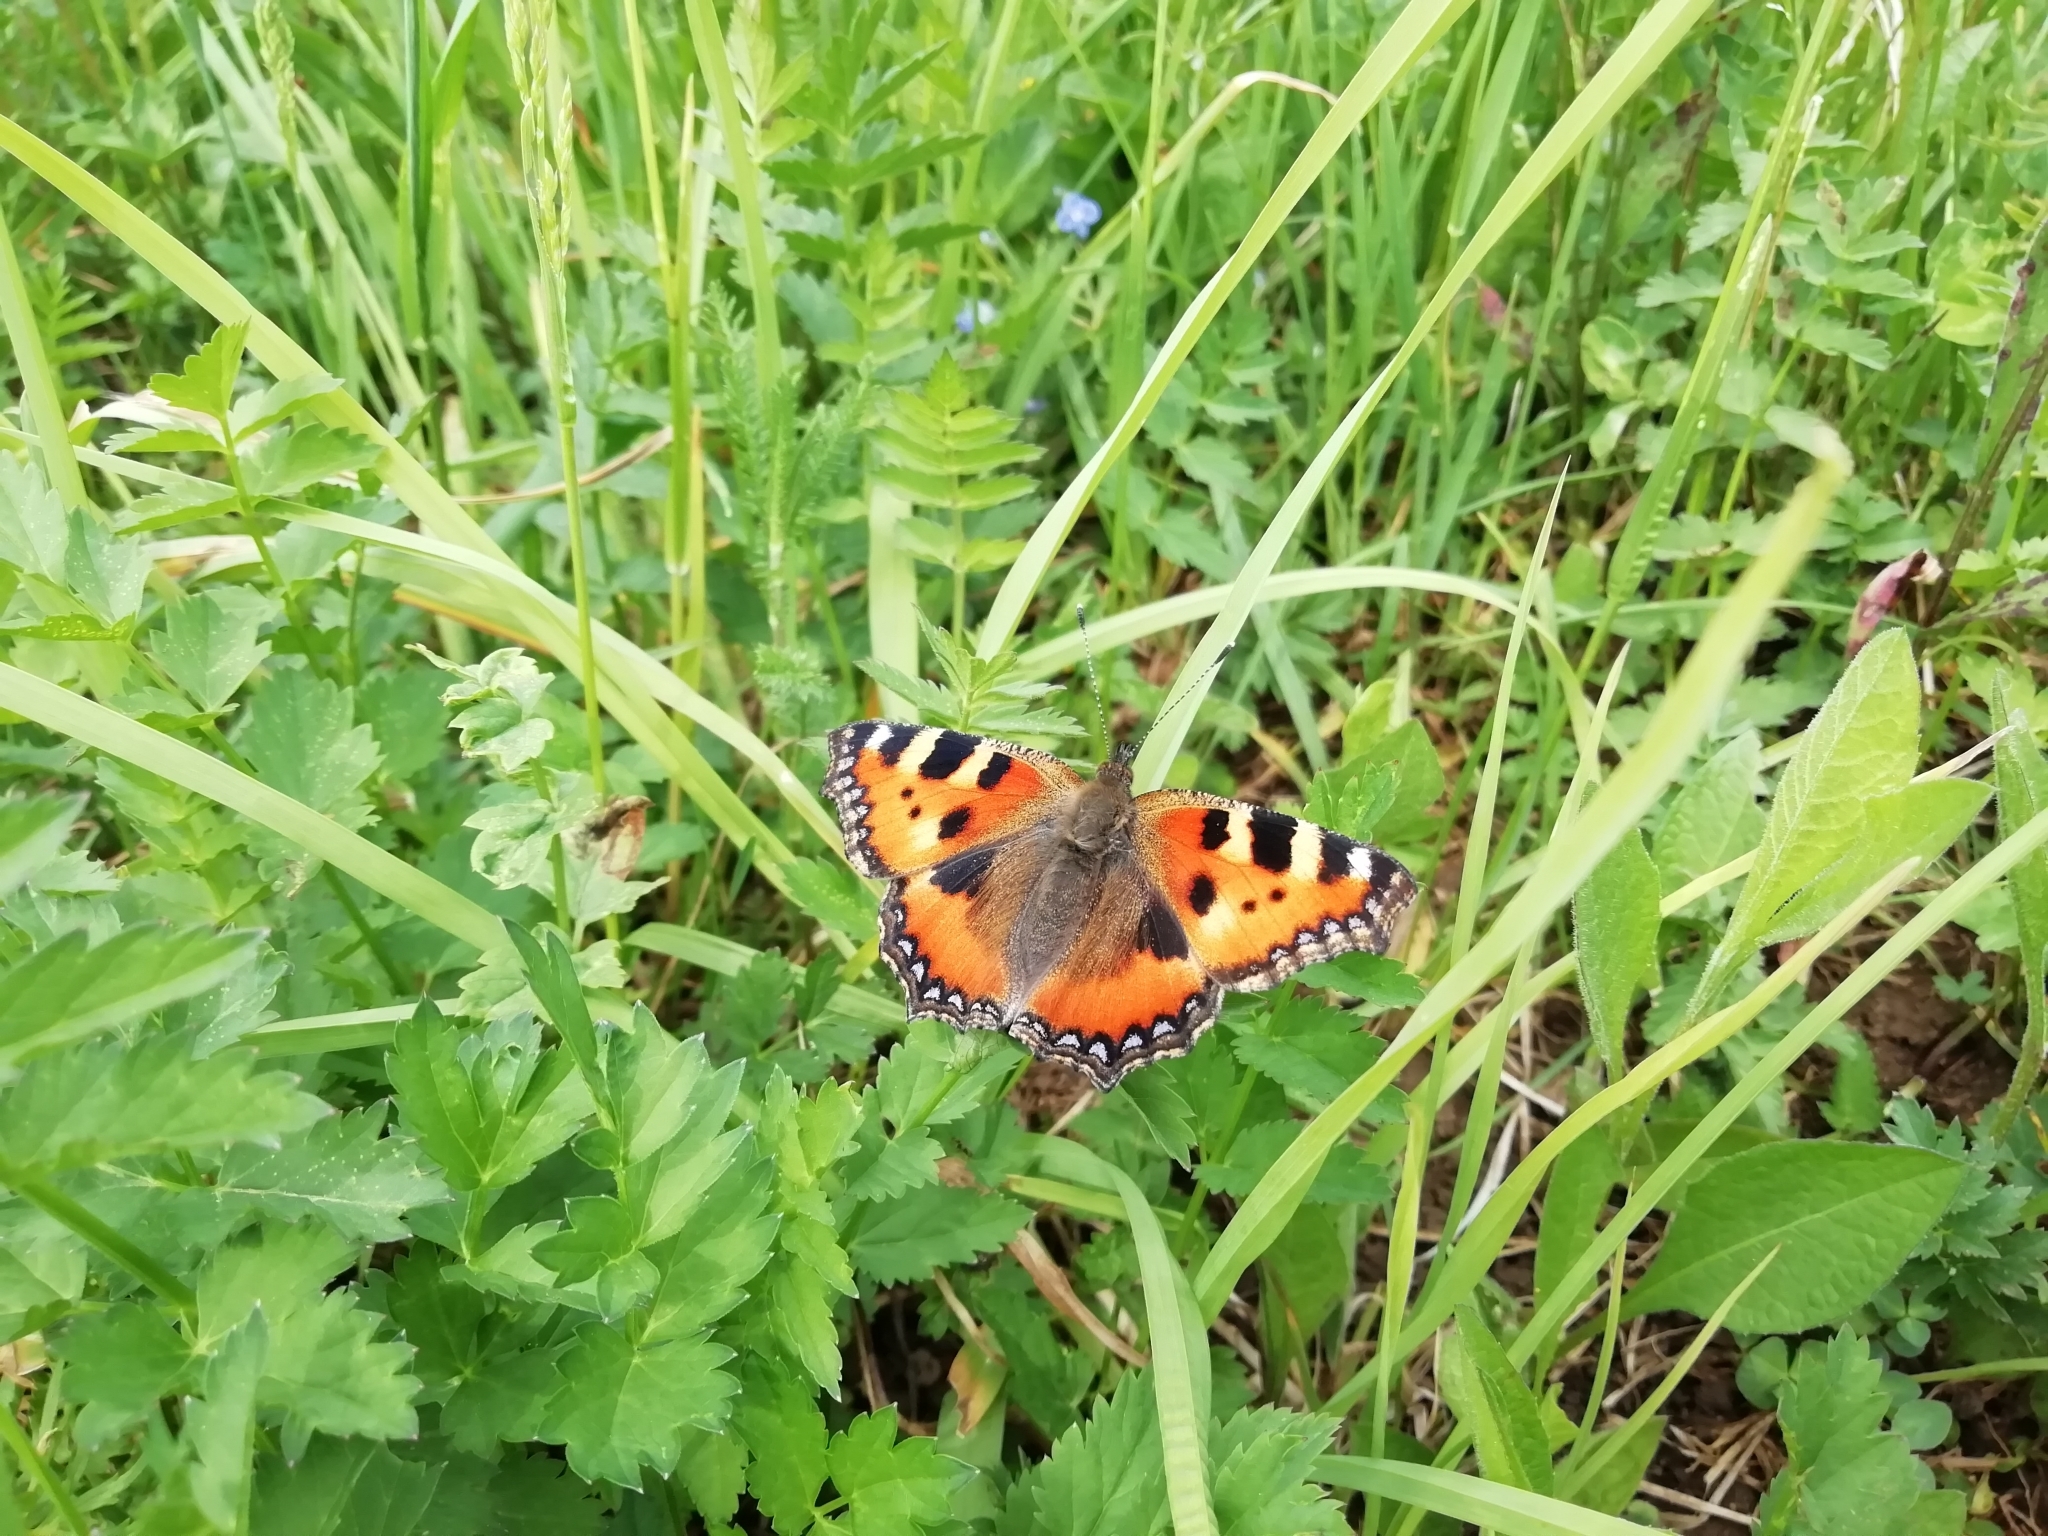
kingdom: Animalia
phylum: Arthropoda
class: Insecta
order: Lepidoptera
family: Nymphalidae
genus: Aglais
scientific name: Aglais urticae
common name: Small tortoiseshell
